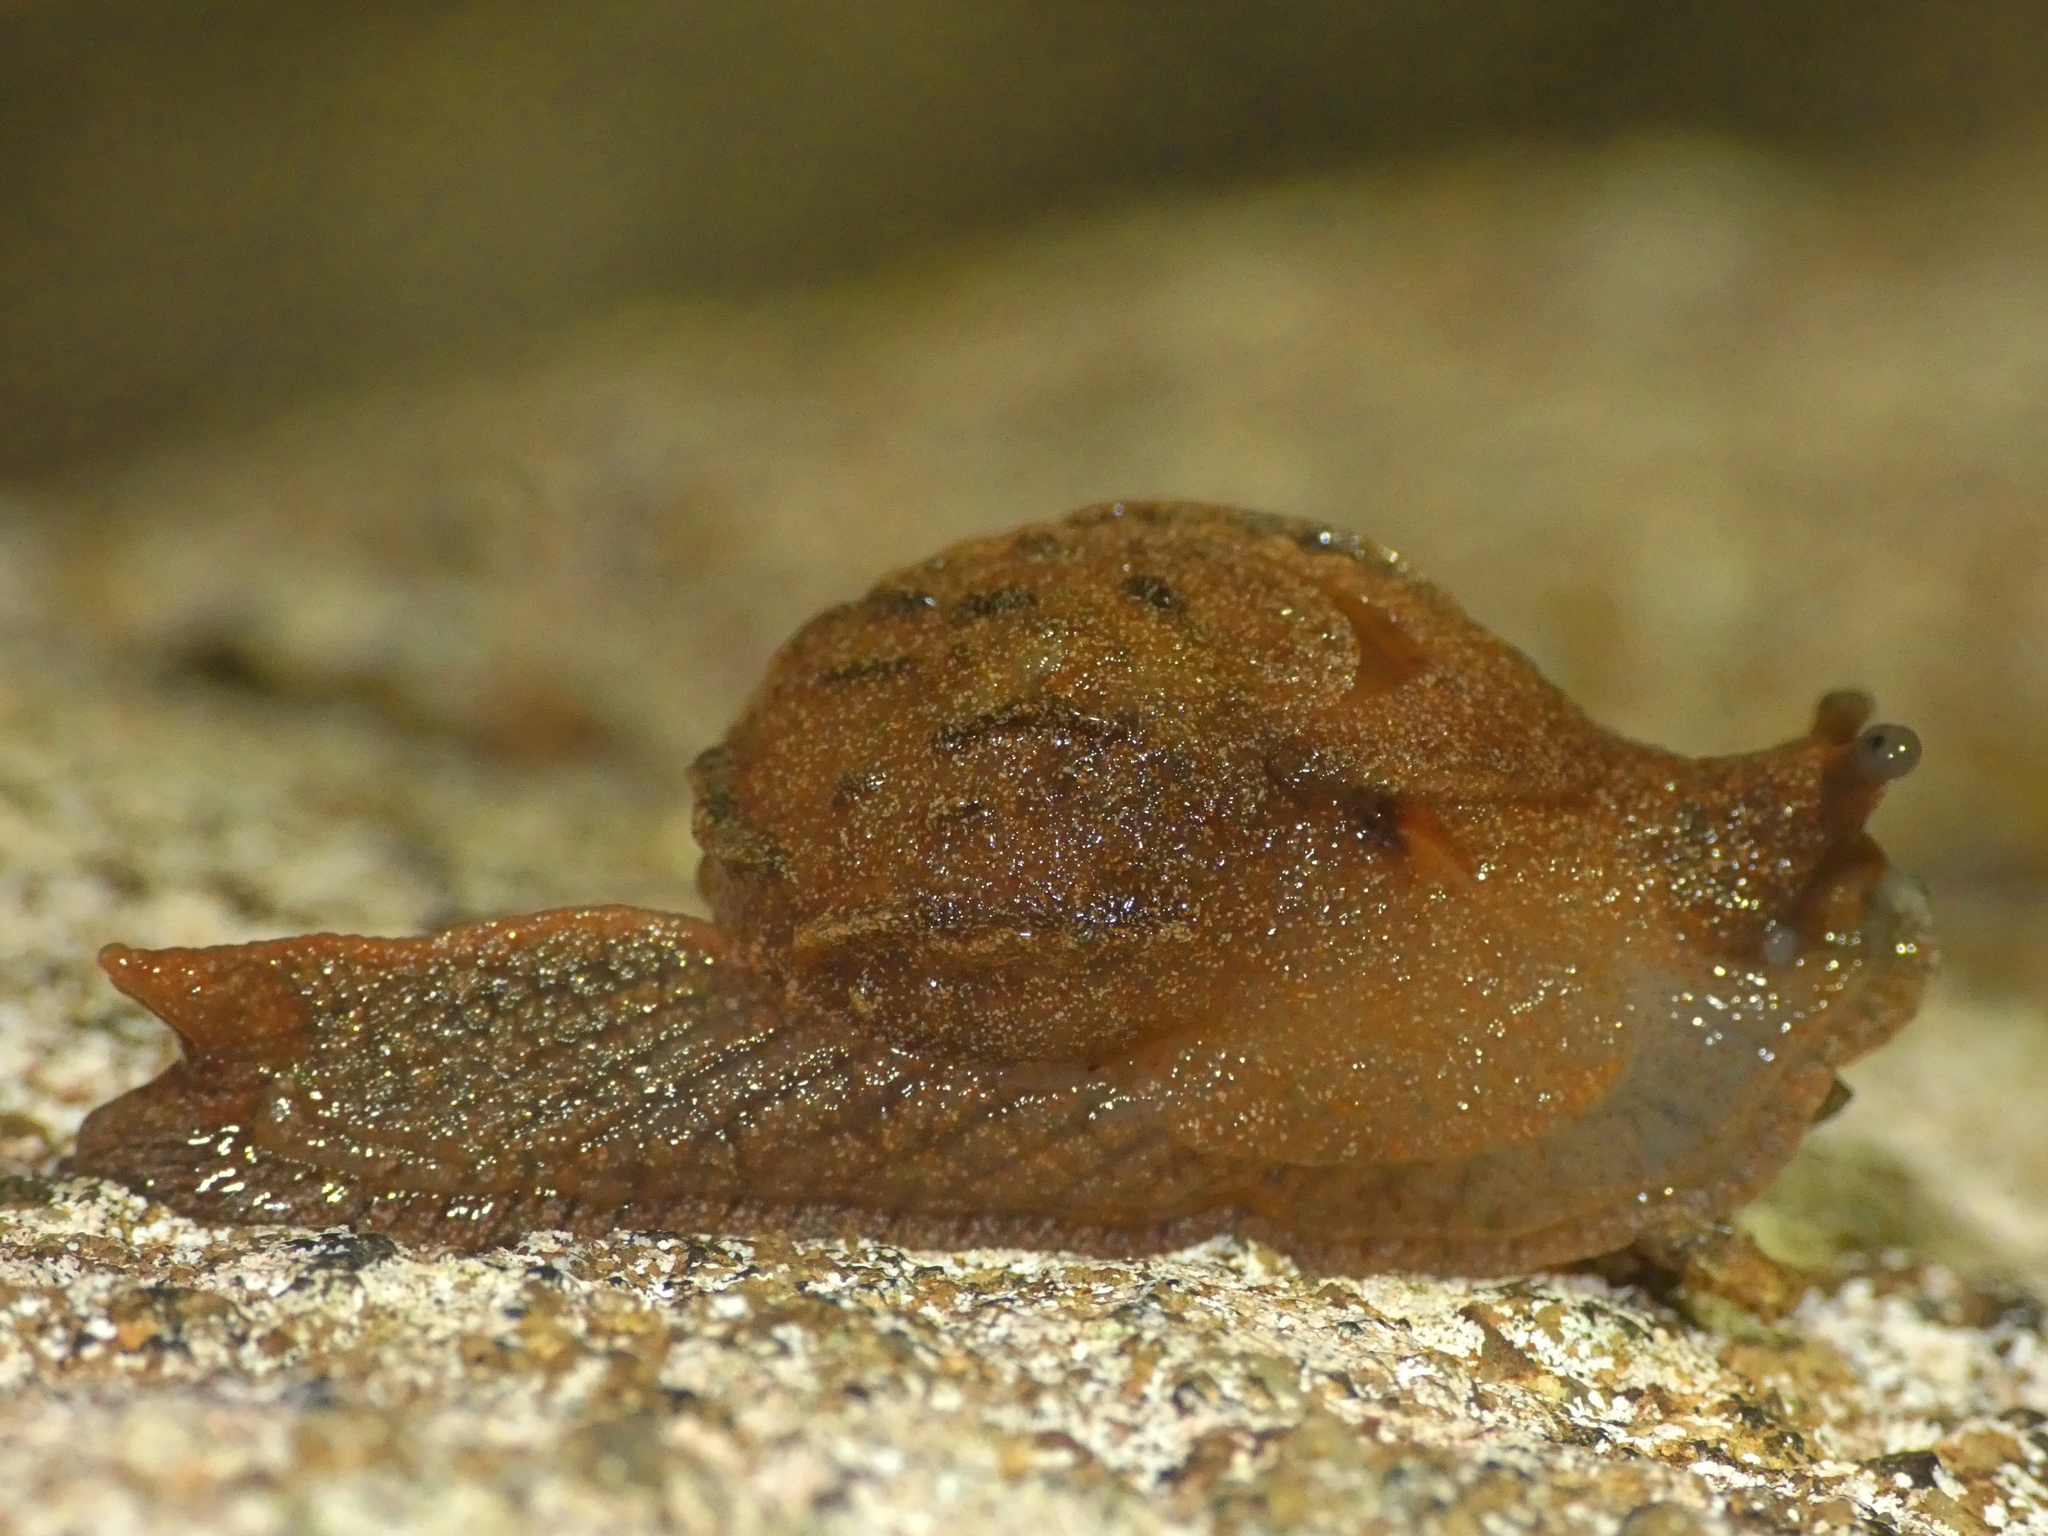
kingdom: Animalia
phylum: Mollusca
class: Gastropoda
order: Stylommatophora
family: Helicarionidae
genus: Fastosarion
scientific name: Fastosarion brazieri
